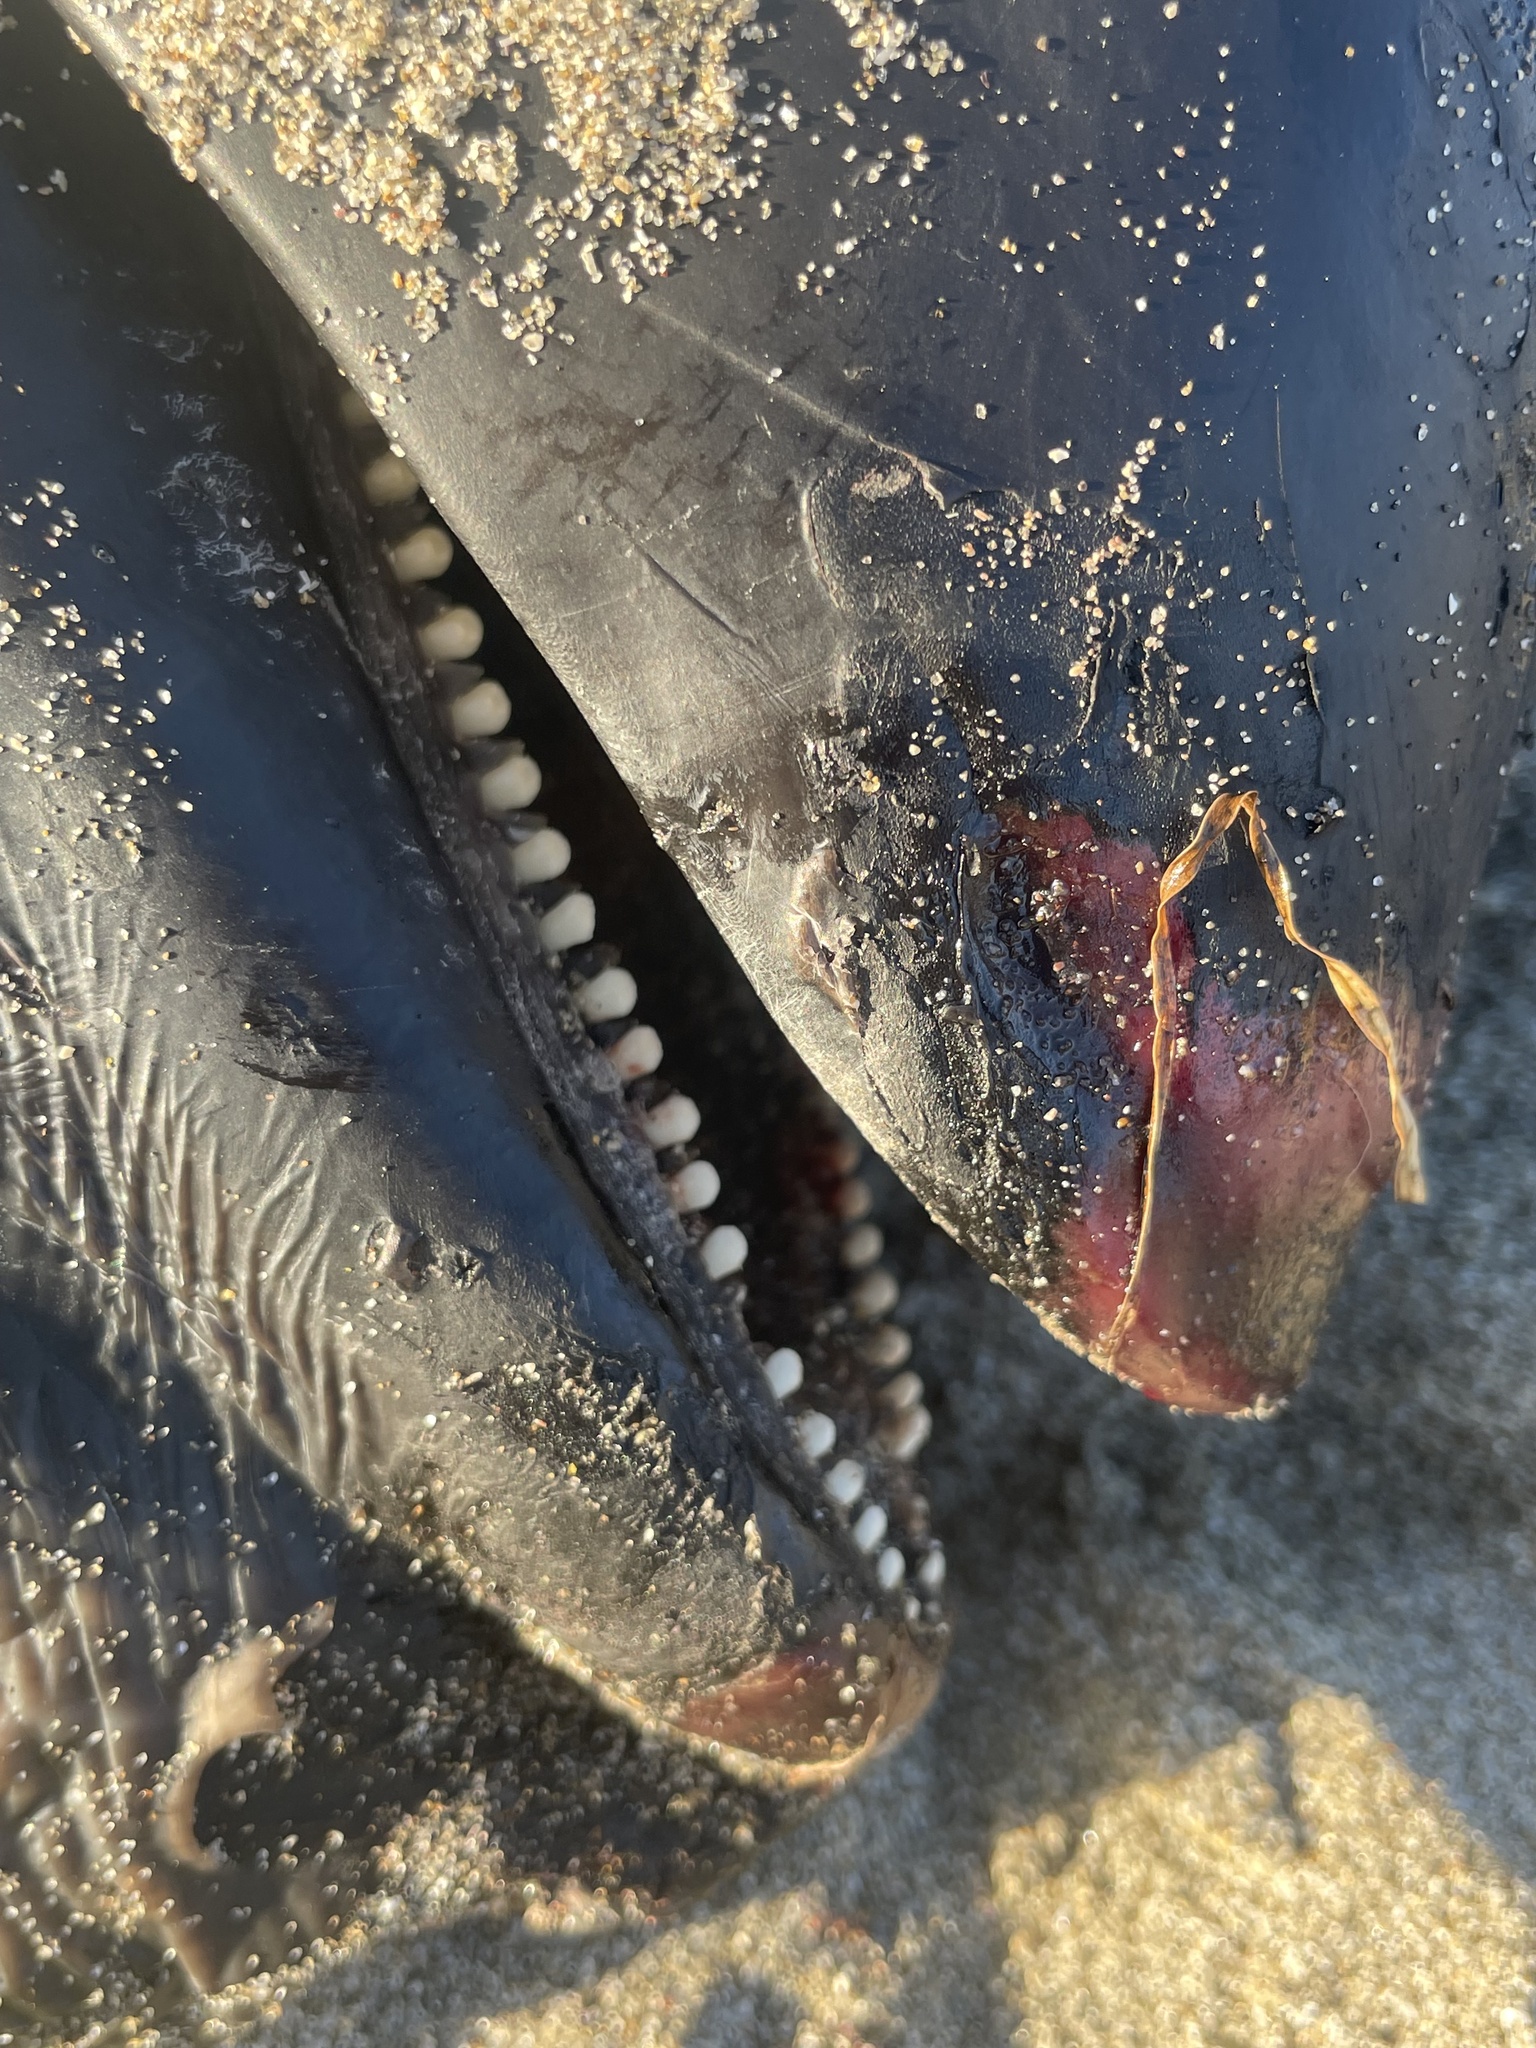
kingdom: Animalia
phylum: Chordata
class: Mammalia
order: Cetacea
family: Phocoenidae
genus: Phocoena
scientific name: Phocoena phocoena
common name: Harbor porpoise
